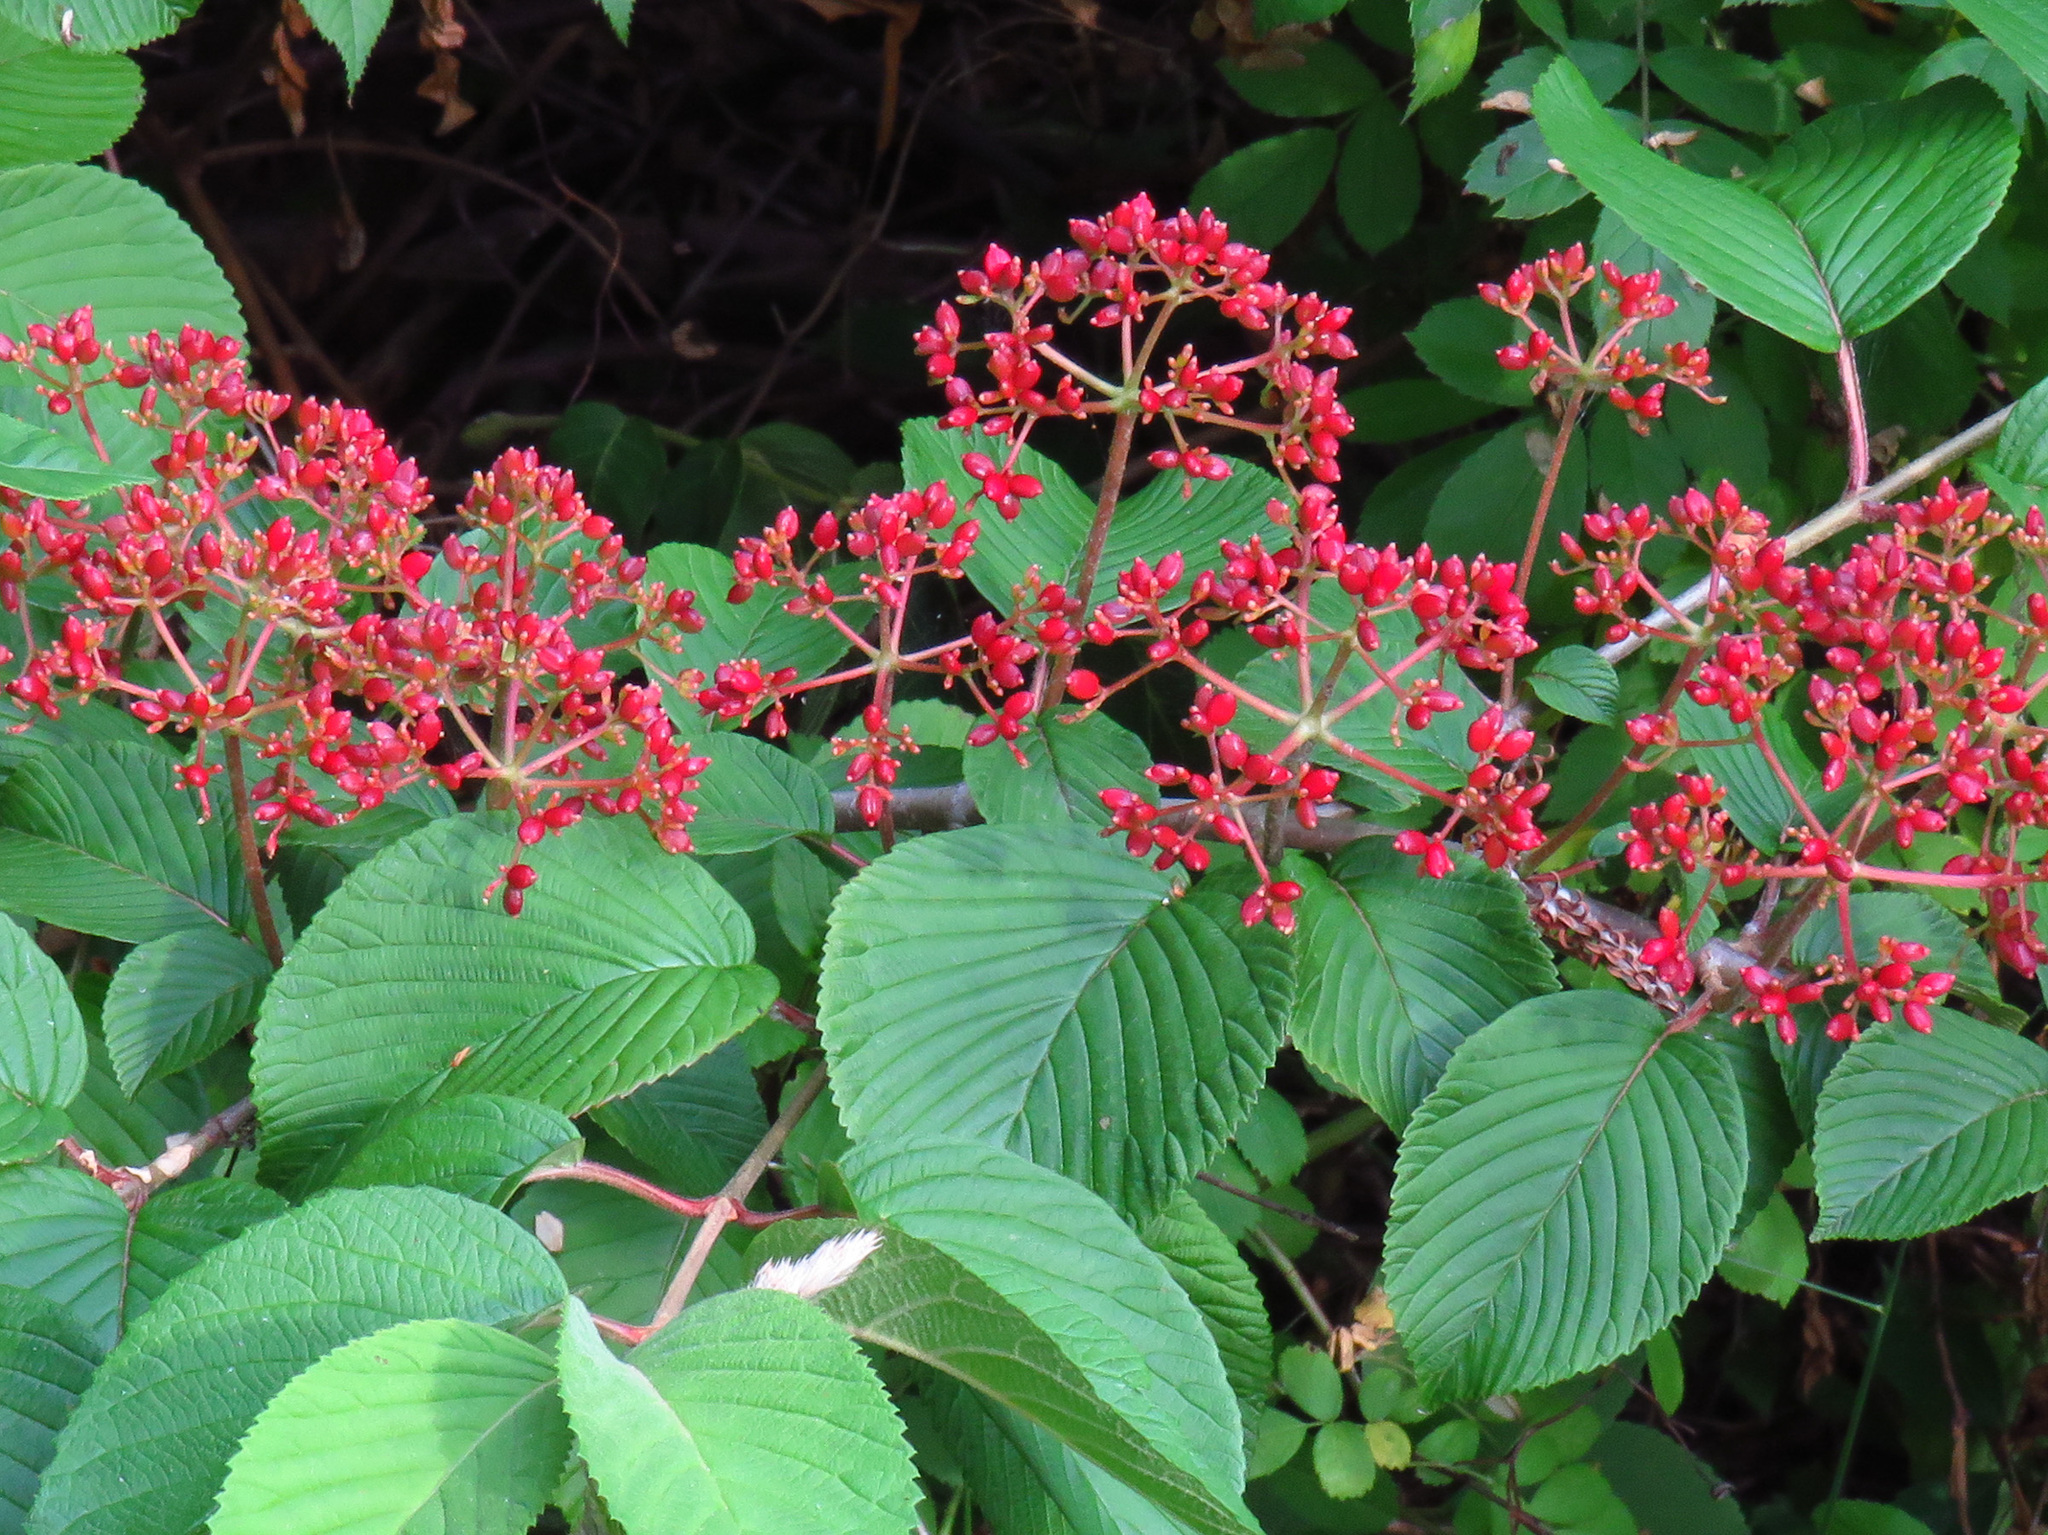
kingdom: Plantae
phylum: Tracheophyta
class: Magnoliopsida
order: Dipsacales
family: Viburnaceae
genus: Viburnum
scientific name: Viburnum plicatum
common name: Japanese snowball
